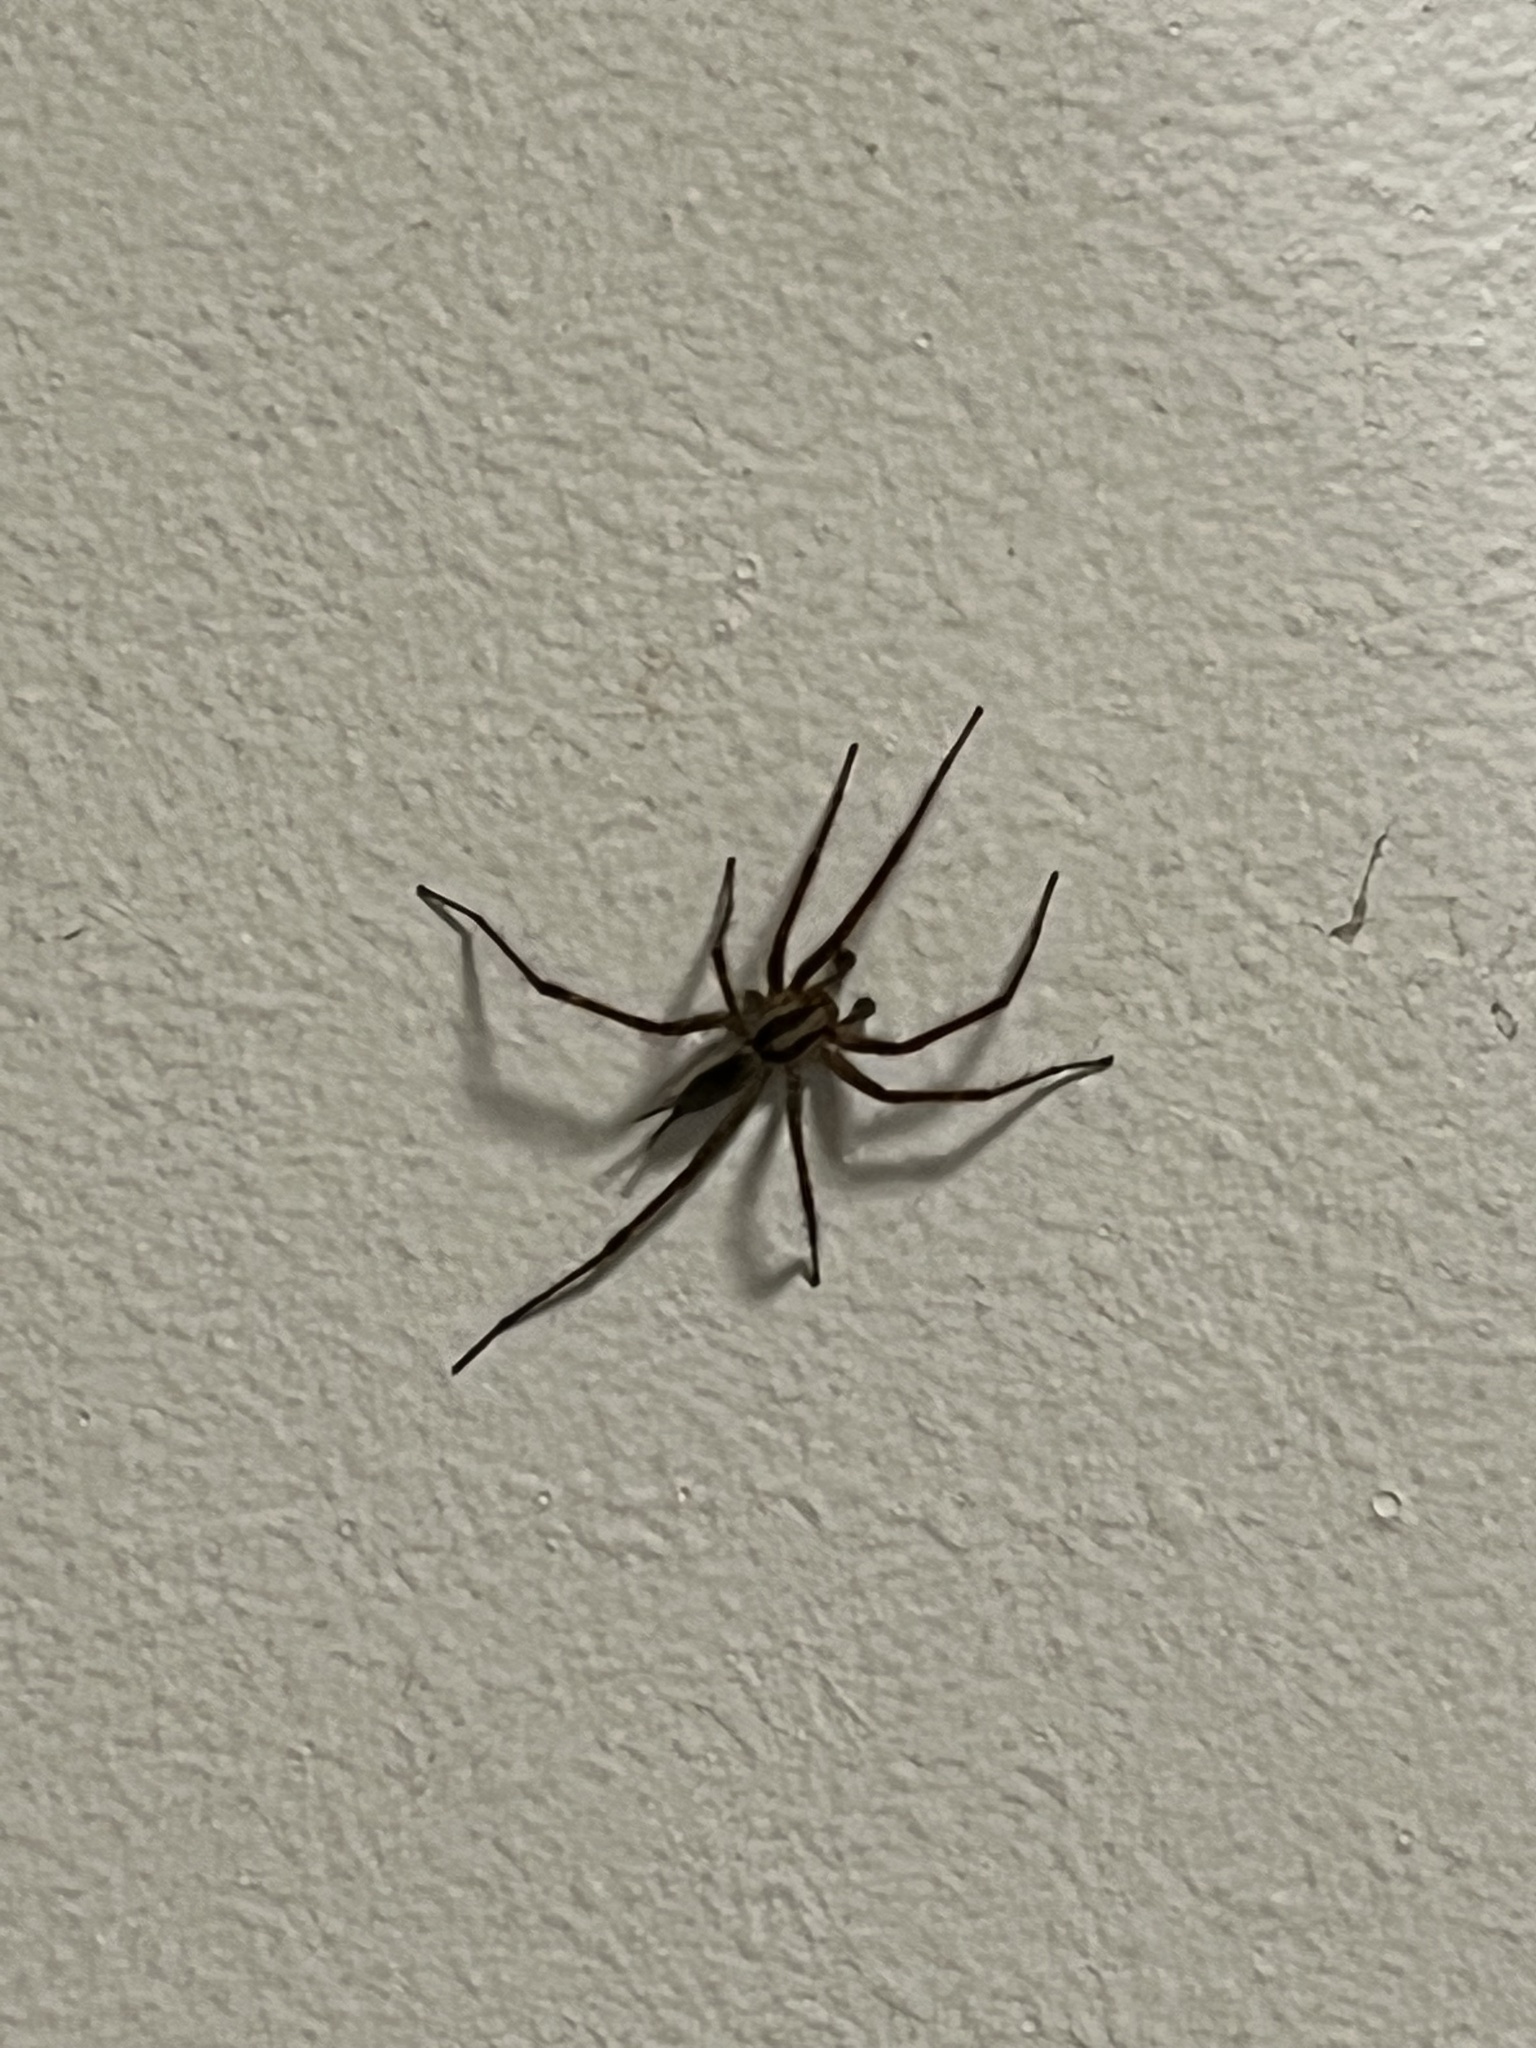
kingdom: Animalia
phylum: Arthropoda
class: Arachnida
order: Araneae
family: Agelenidae
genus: Agelenopsis
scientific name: Agelenopsis
